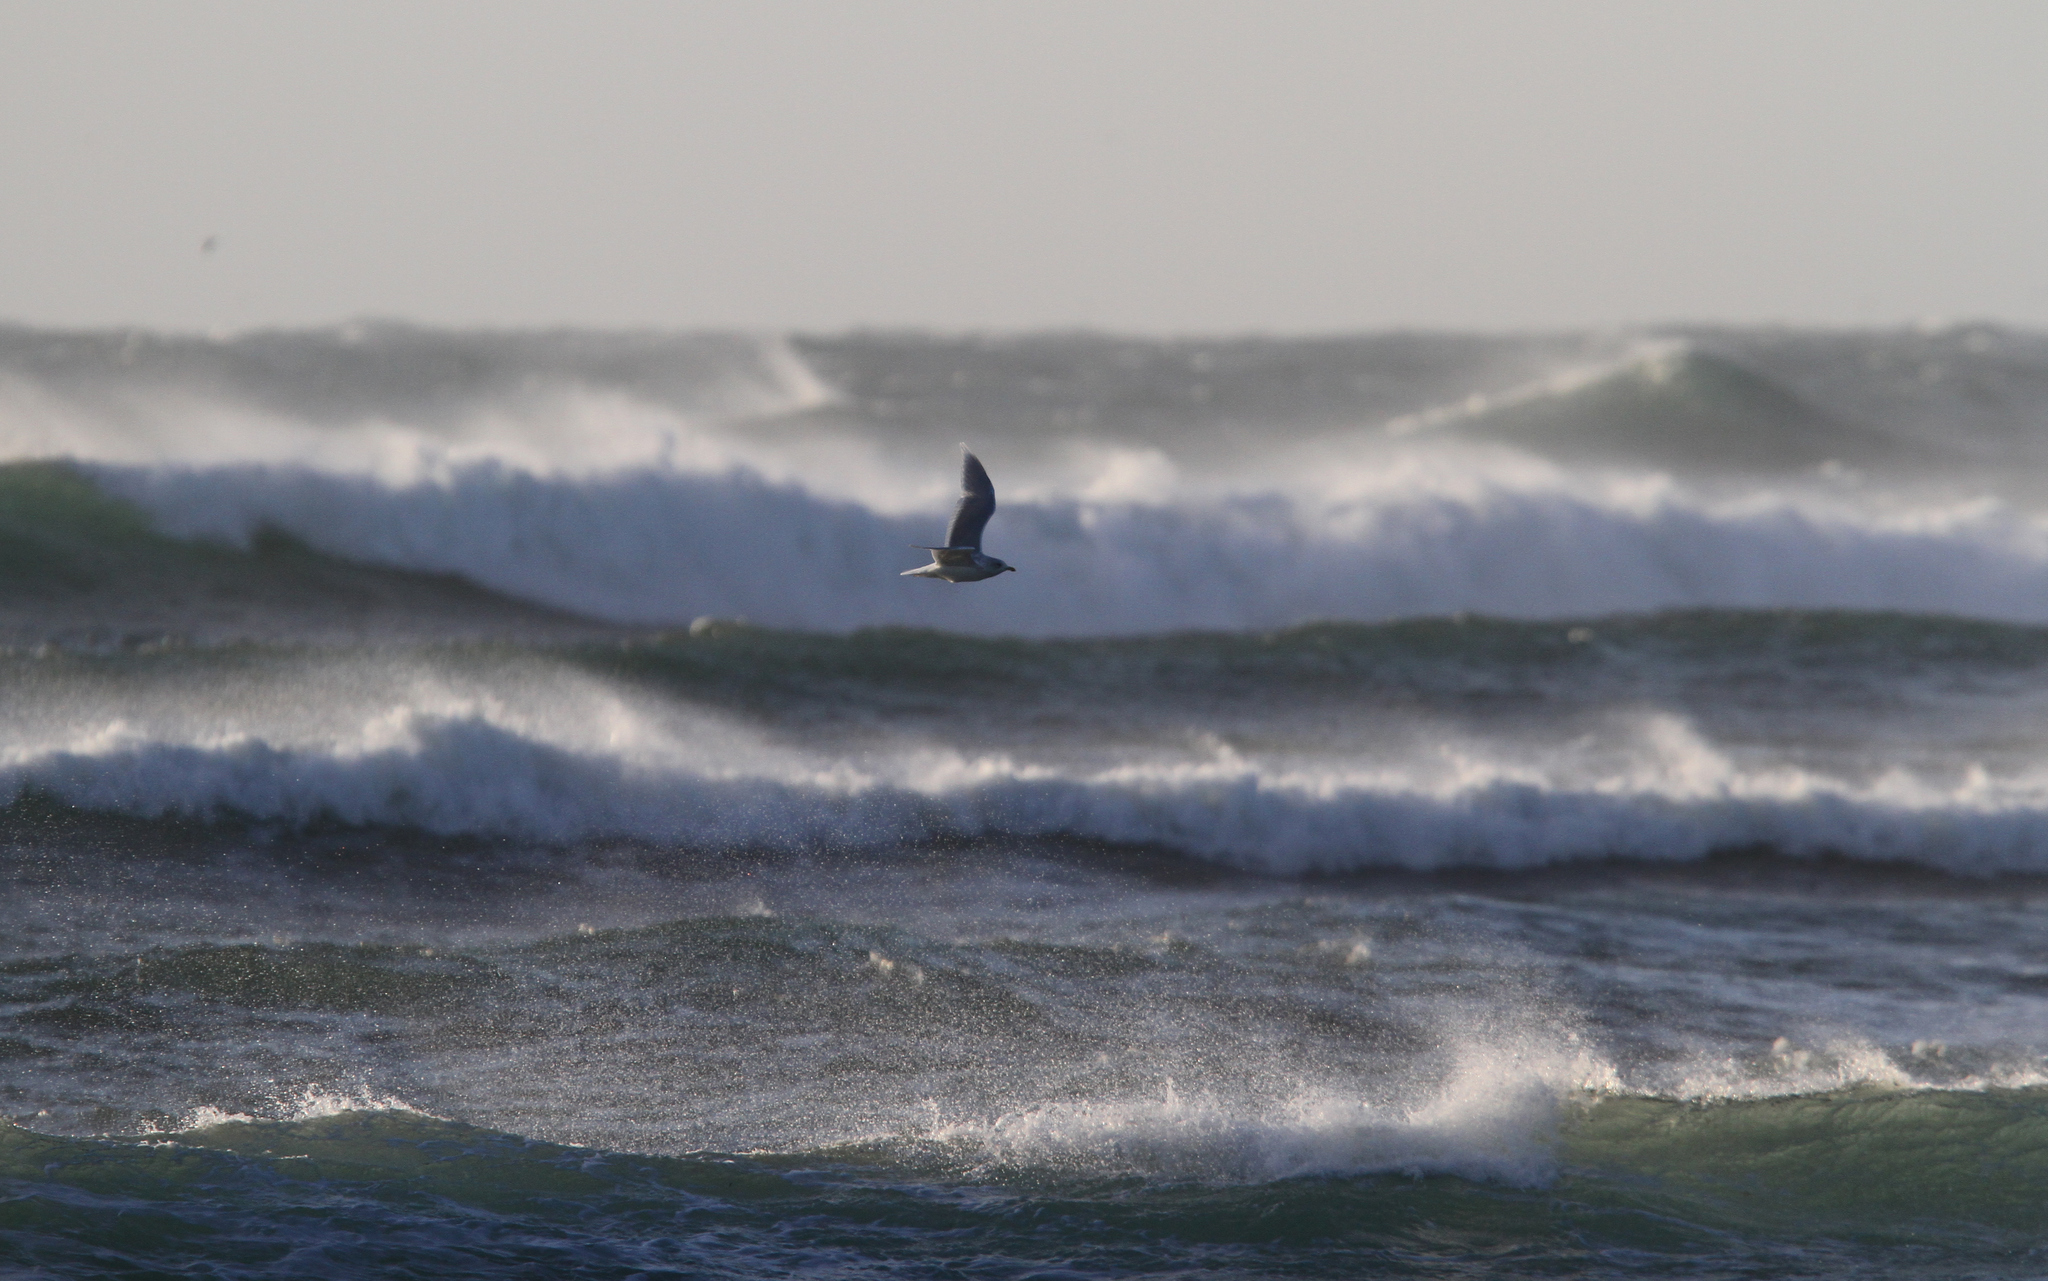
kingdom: Animalia
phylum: Chordata
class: Aves
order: Charadriiformes
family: Laridae
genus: Larus
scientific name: Larus hyperboreus
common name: Glaucous gull
